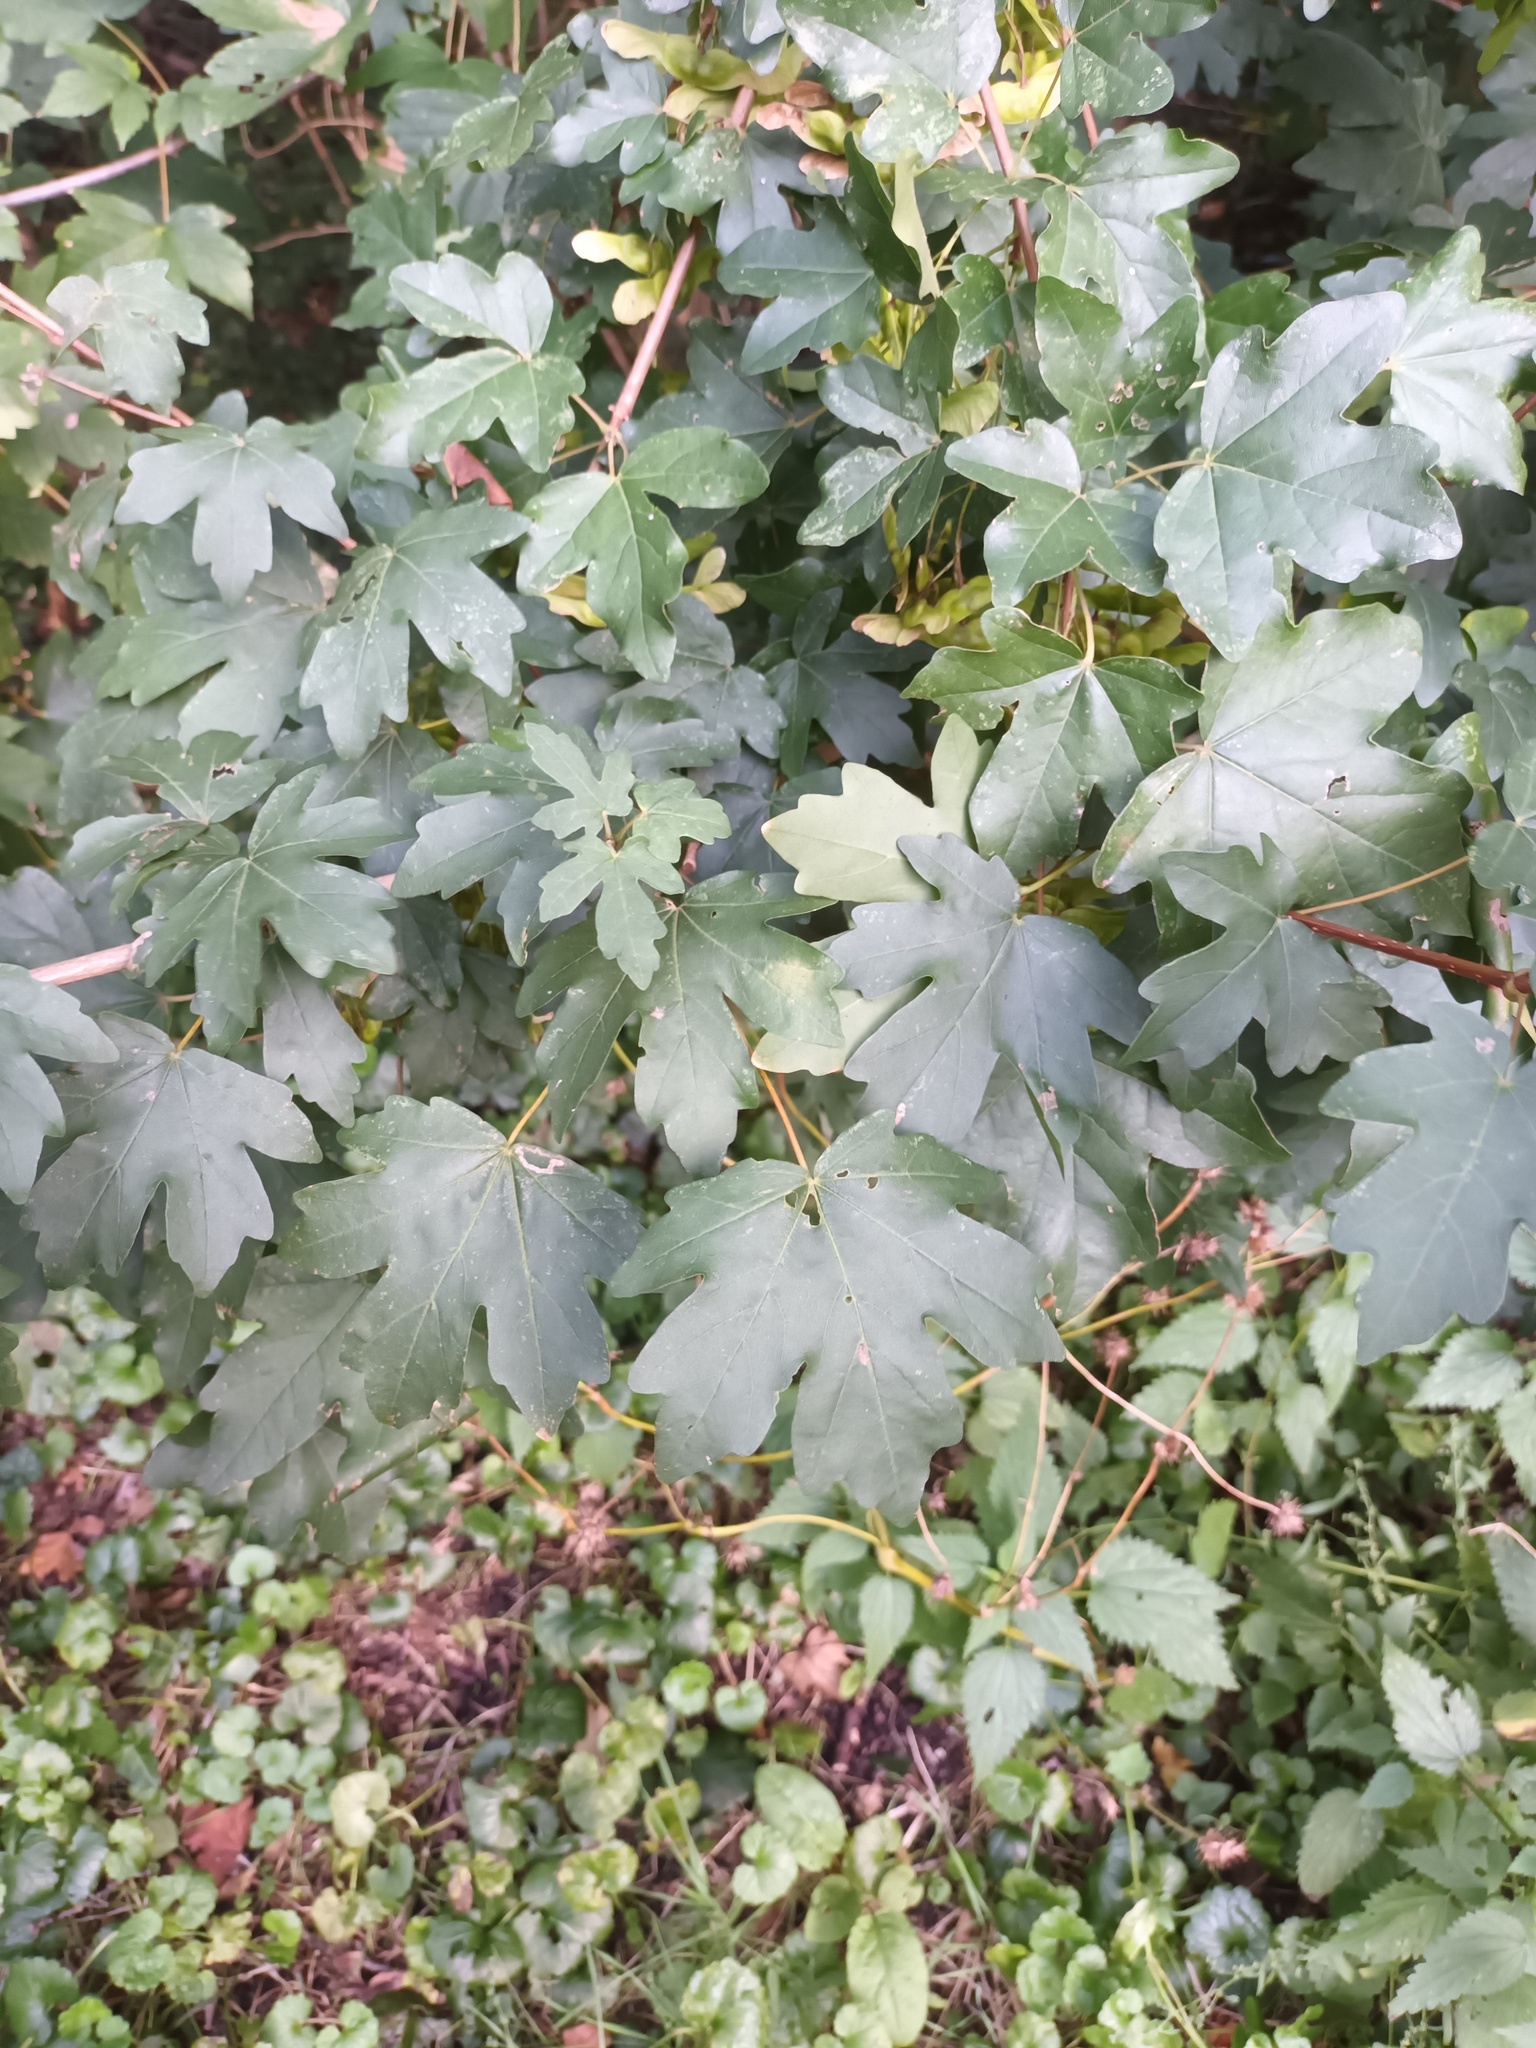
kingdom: Plantae
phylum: Tracheophyta
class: Magnoliopsida
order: Sapindales
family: Sapindaceae
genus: Acer
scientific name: Acer campestre
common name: Field maple
